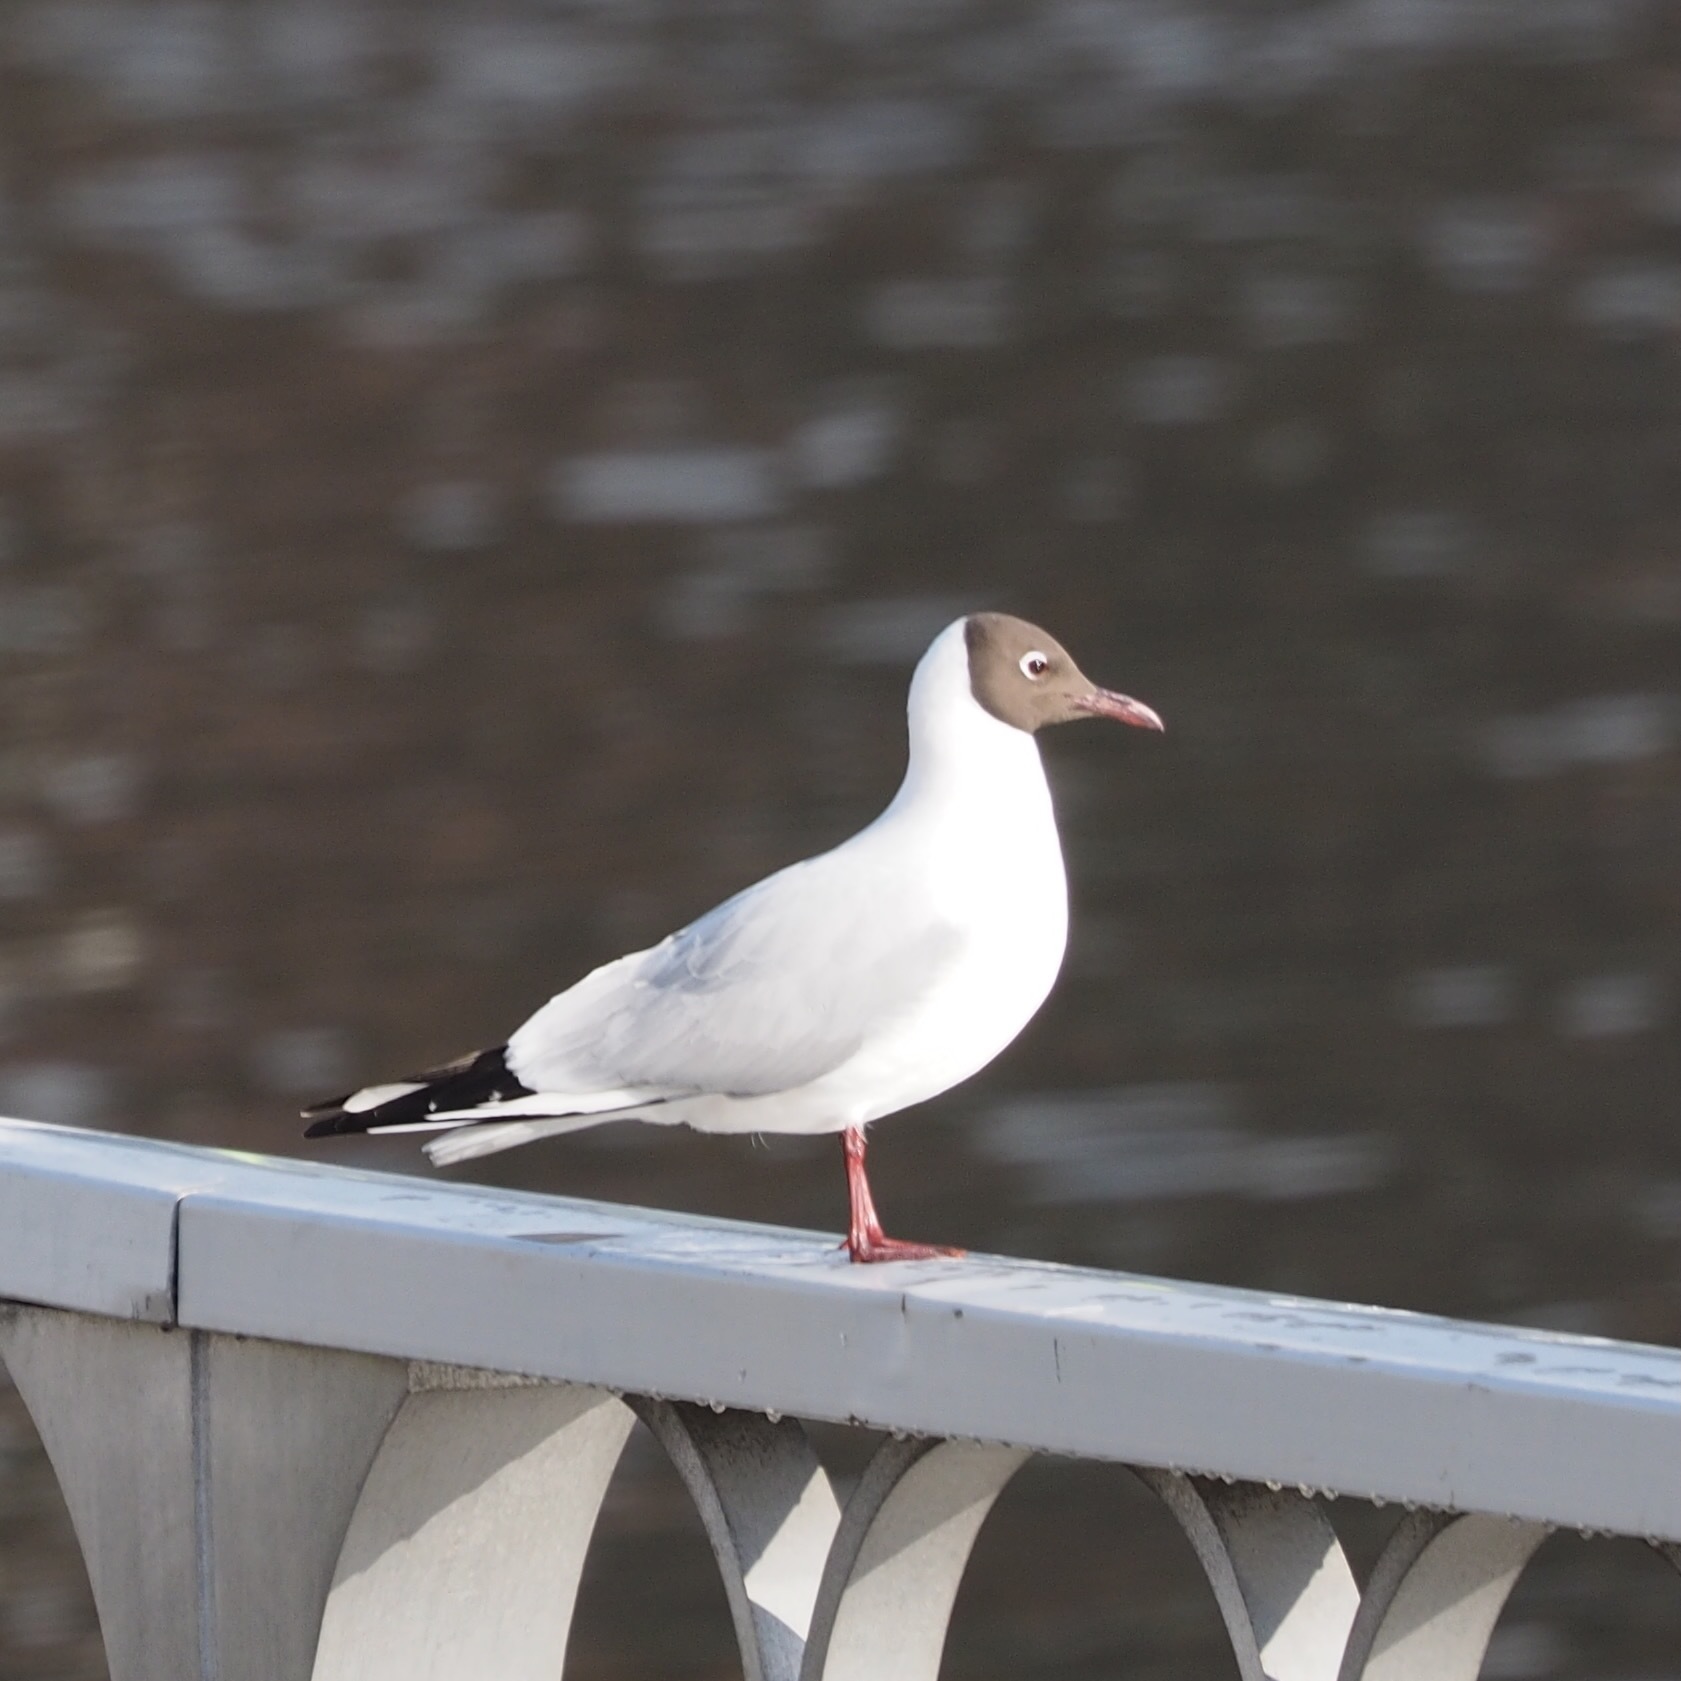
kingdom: Animalia
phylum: Chordata
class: Aves
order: Charadriiformes
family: Laridae
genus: Chroicocephalus
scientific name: Chroicocephalus ridibundus
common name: Black-headed gull
